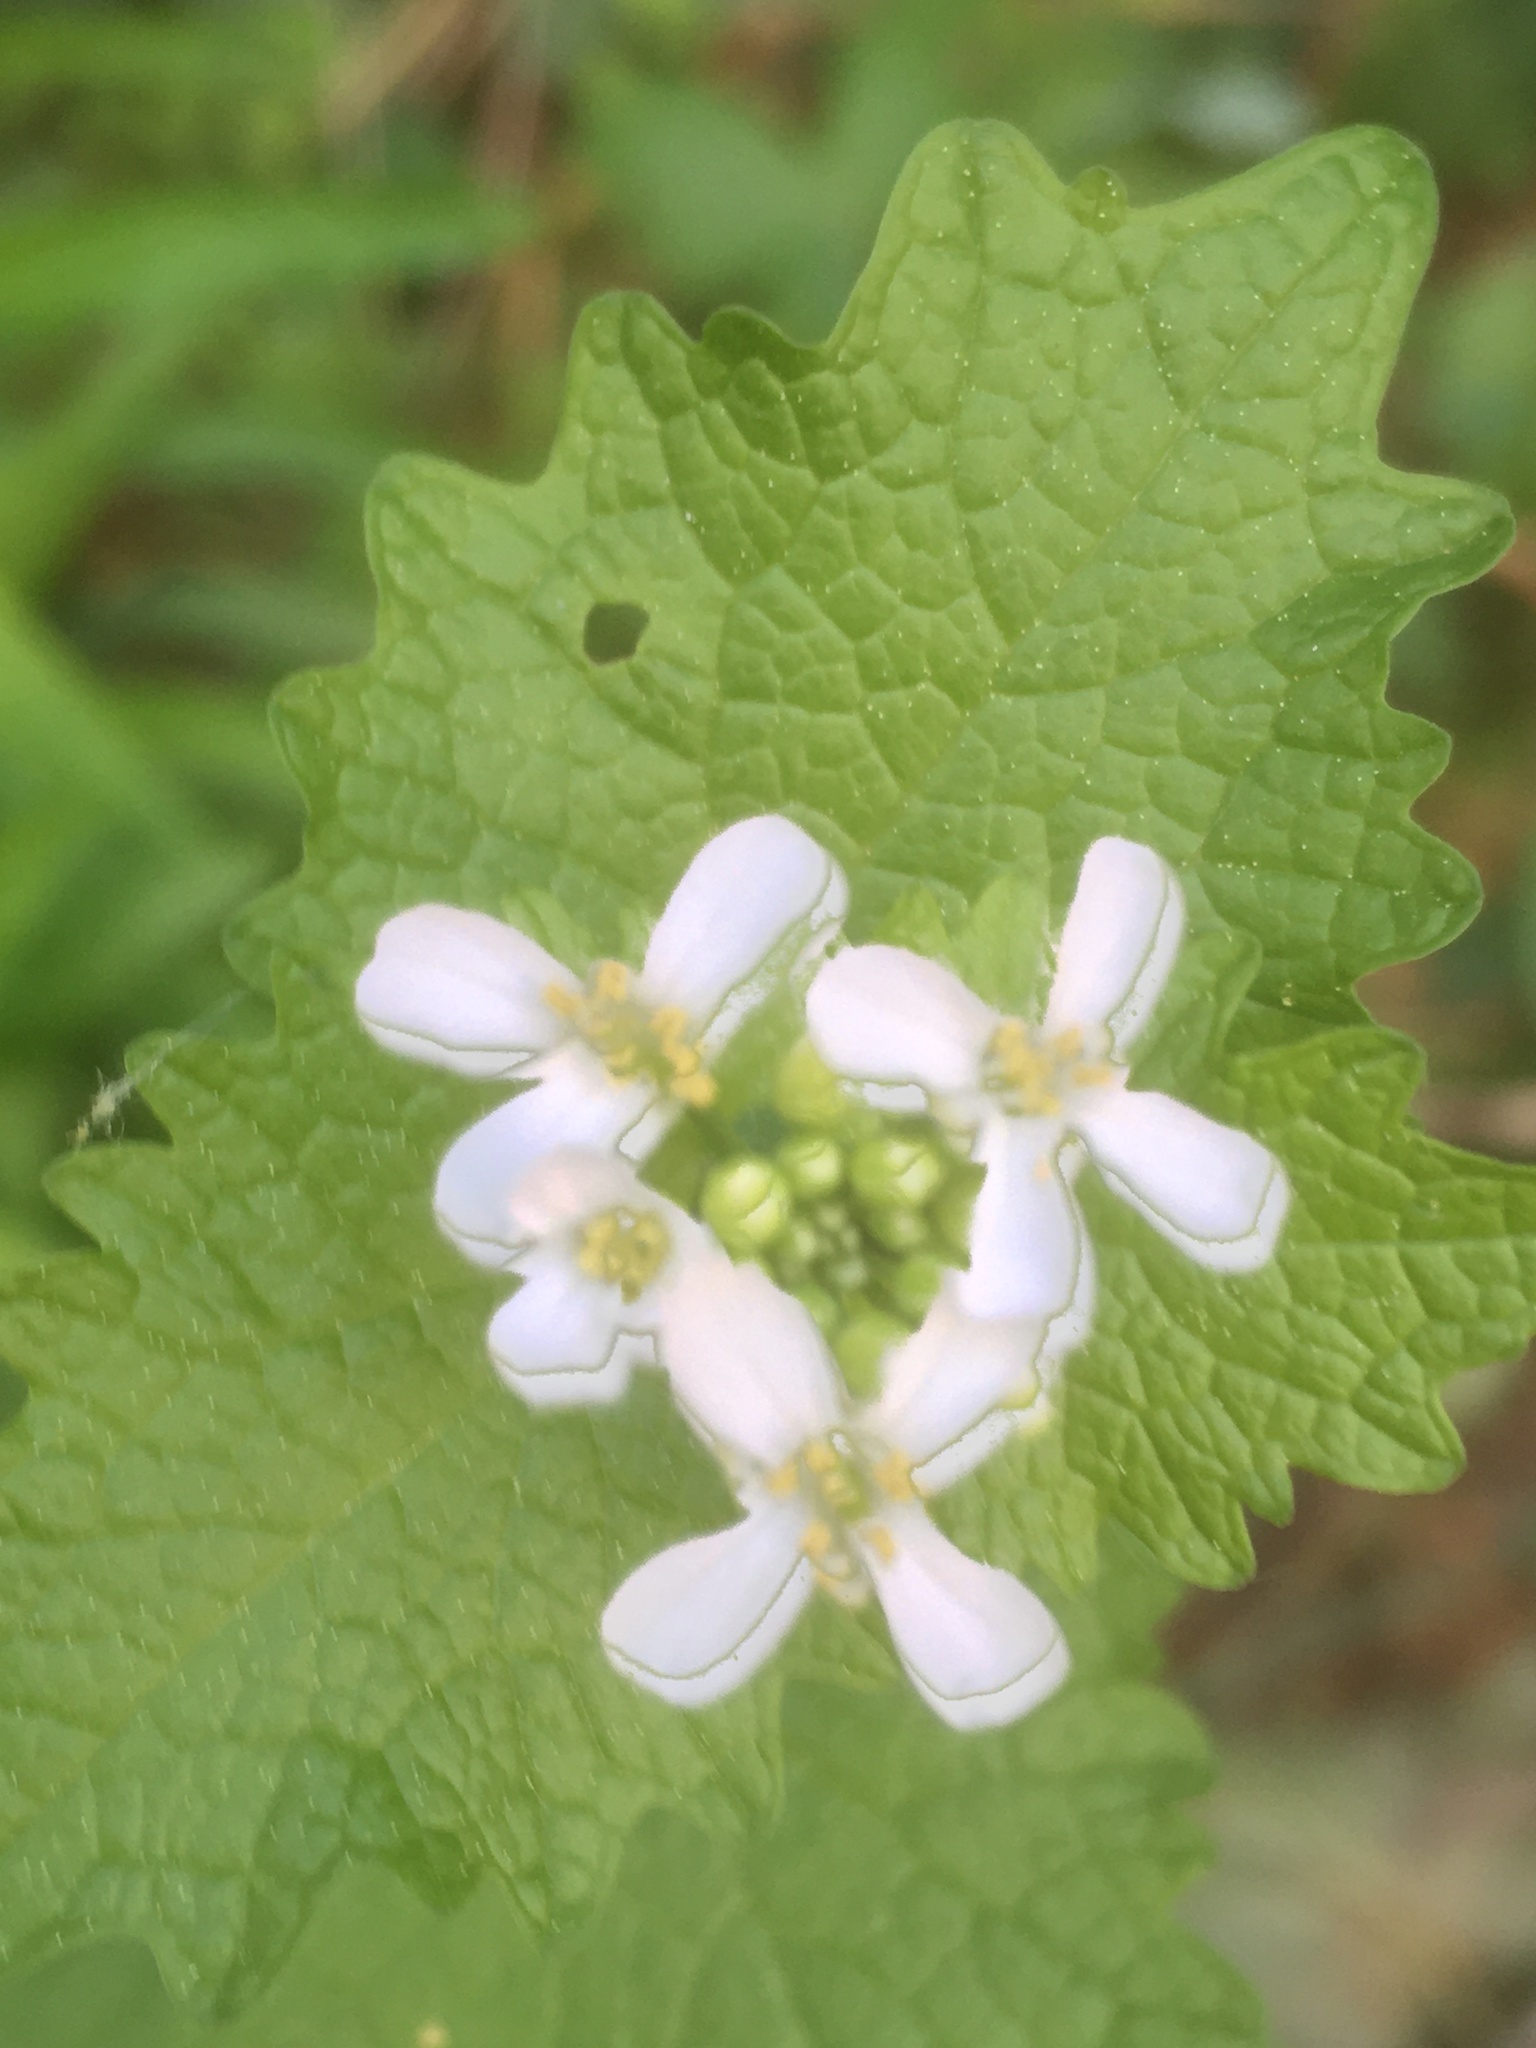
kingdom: Plantae
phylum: Tracheophyta
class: Magnoliopsida
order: Brassicales
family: Brassicaceae
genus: Alliaria
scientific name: Alliaria petiolata
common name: Garlic mustard
